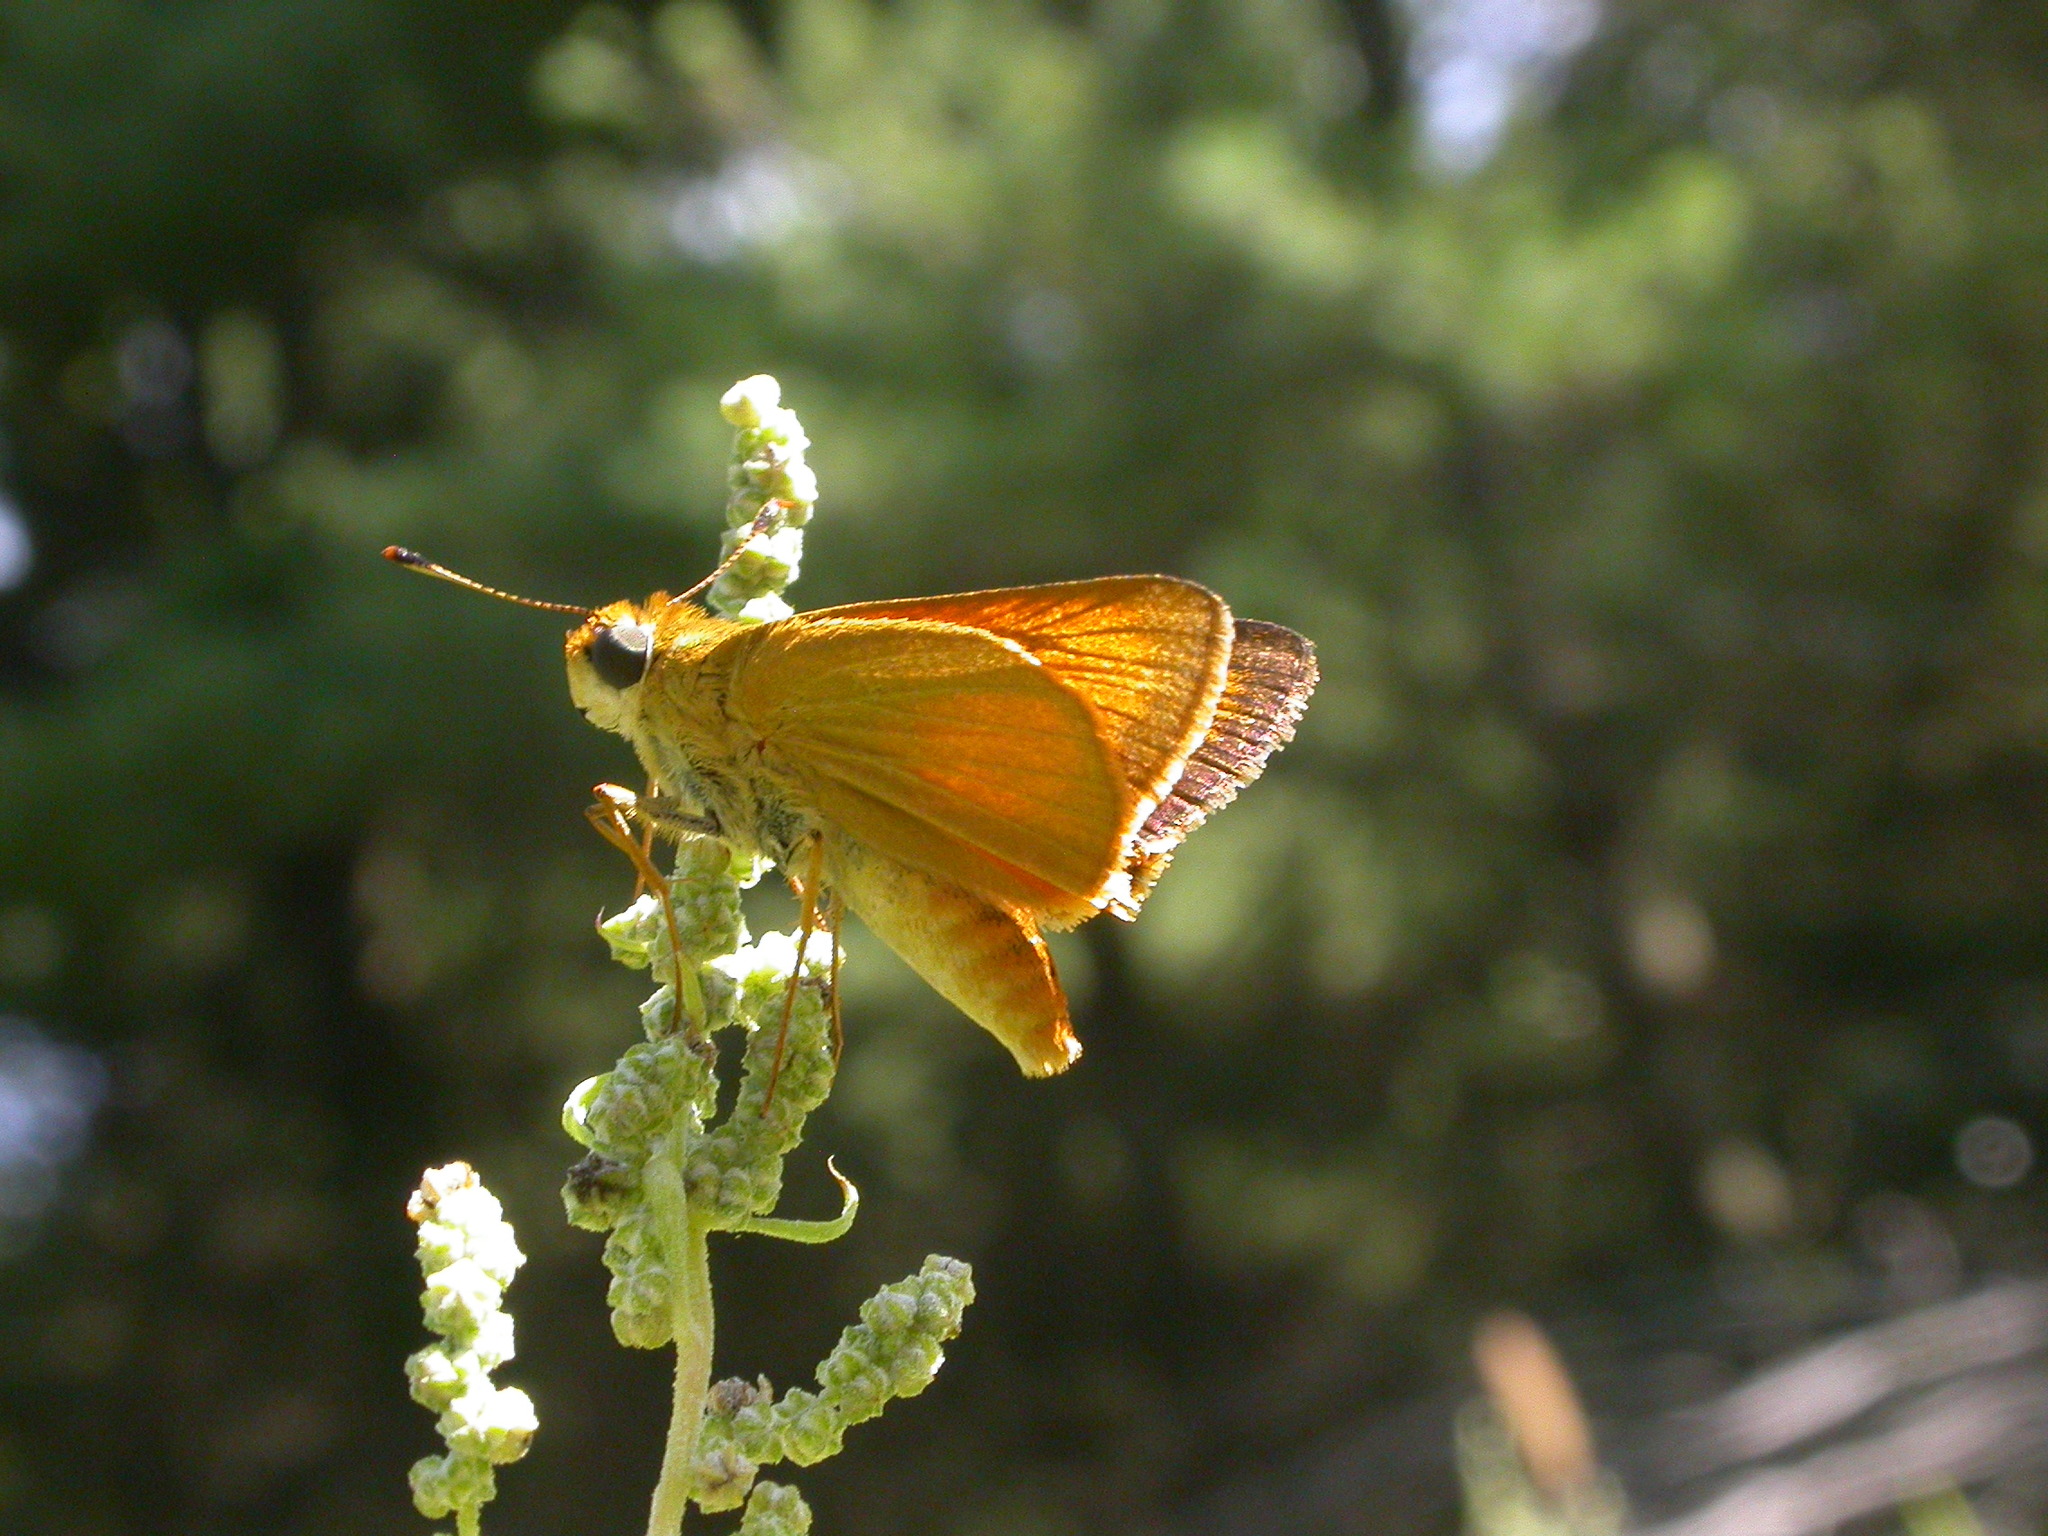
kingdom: Animalia
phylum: Arthropoda
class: Insecta
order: Lepidoptera
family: Hesperiidae
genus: Atrytone
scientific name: Atrytone delaware
